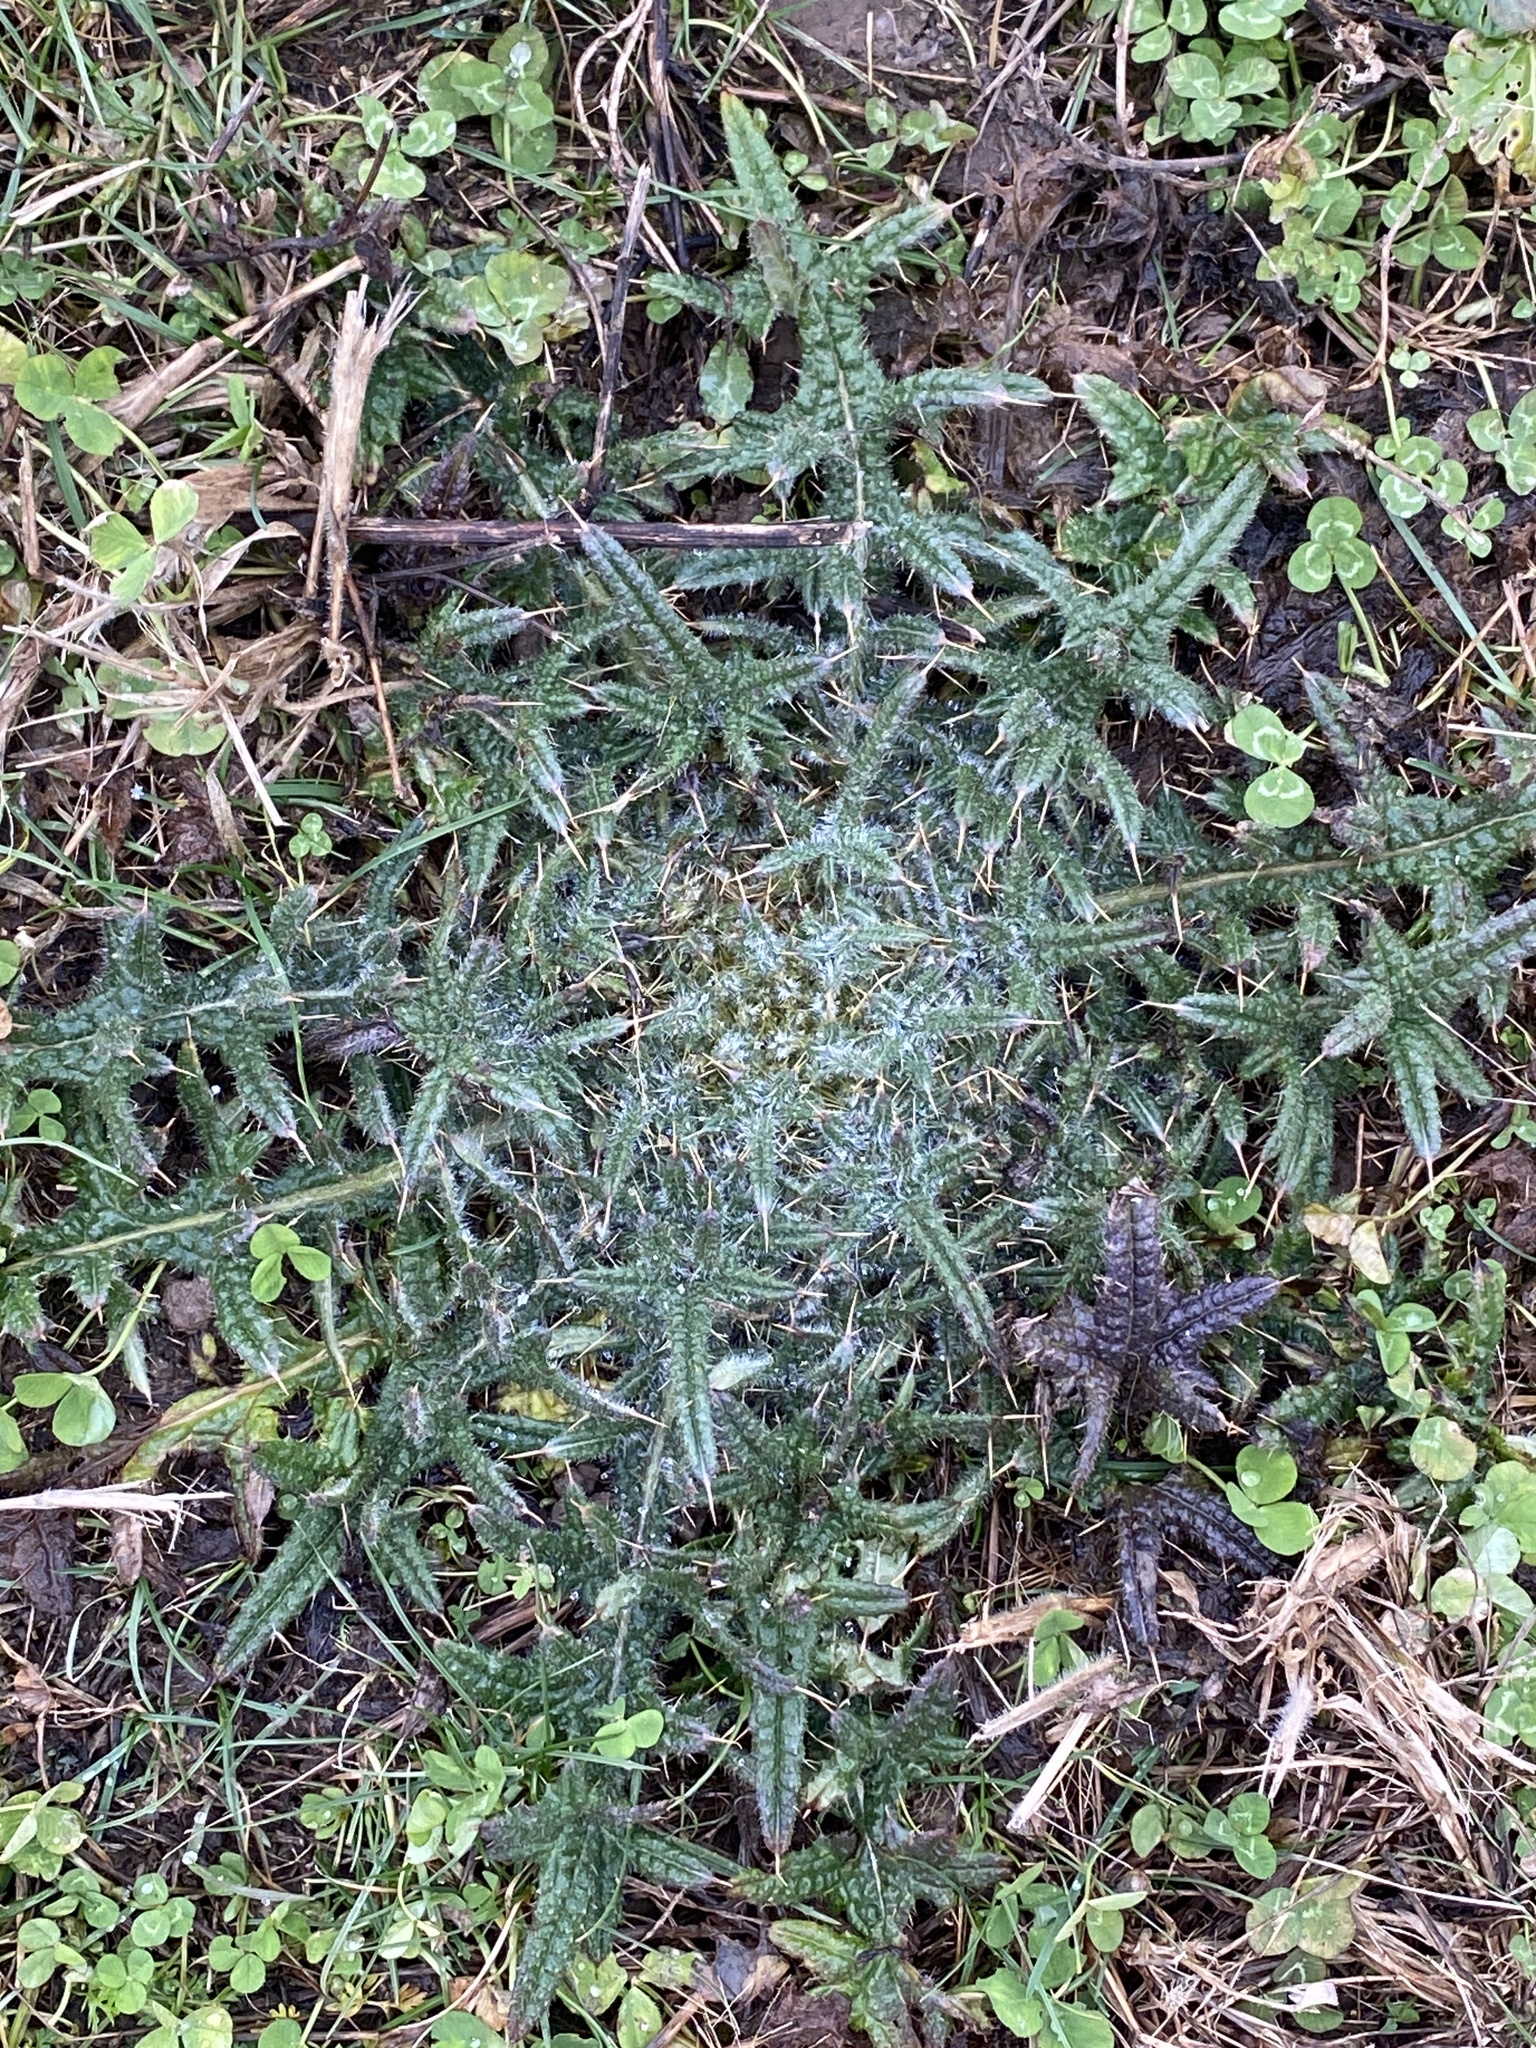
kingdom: Plantae
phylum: Tracheophyta
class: Magnoliopsida
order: Asterales
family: Asteraceae
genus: Cirsium
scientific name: Cirsium vulgare
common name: Bull thistle
